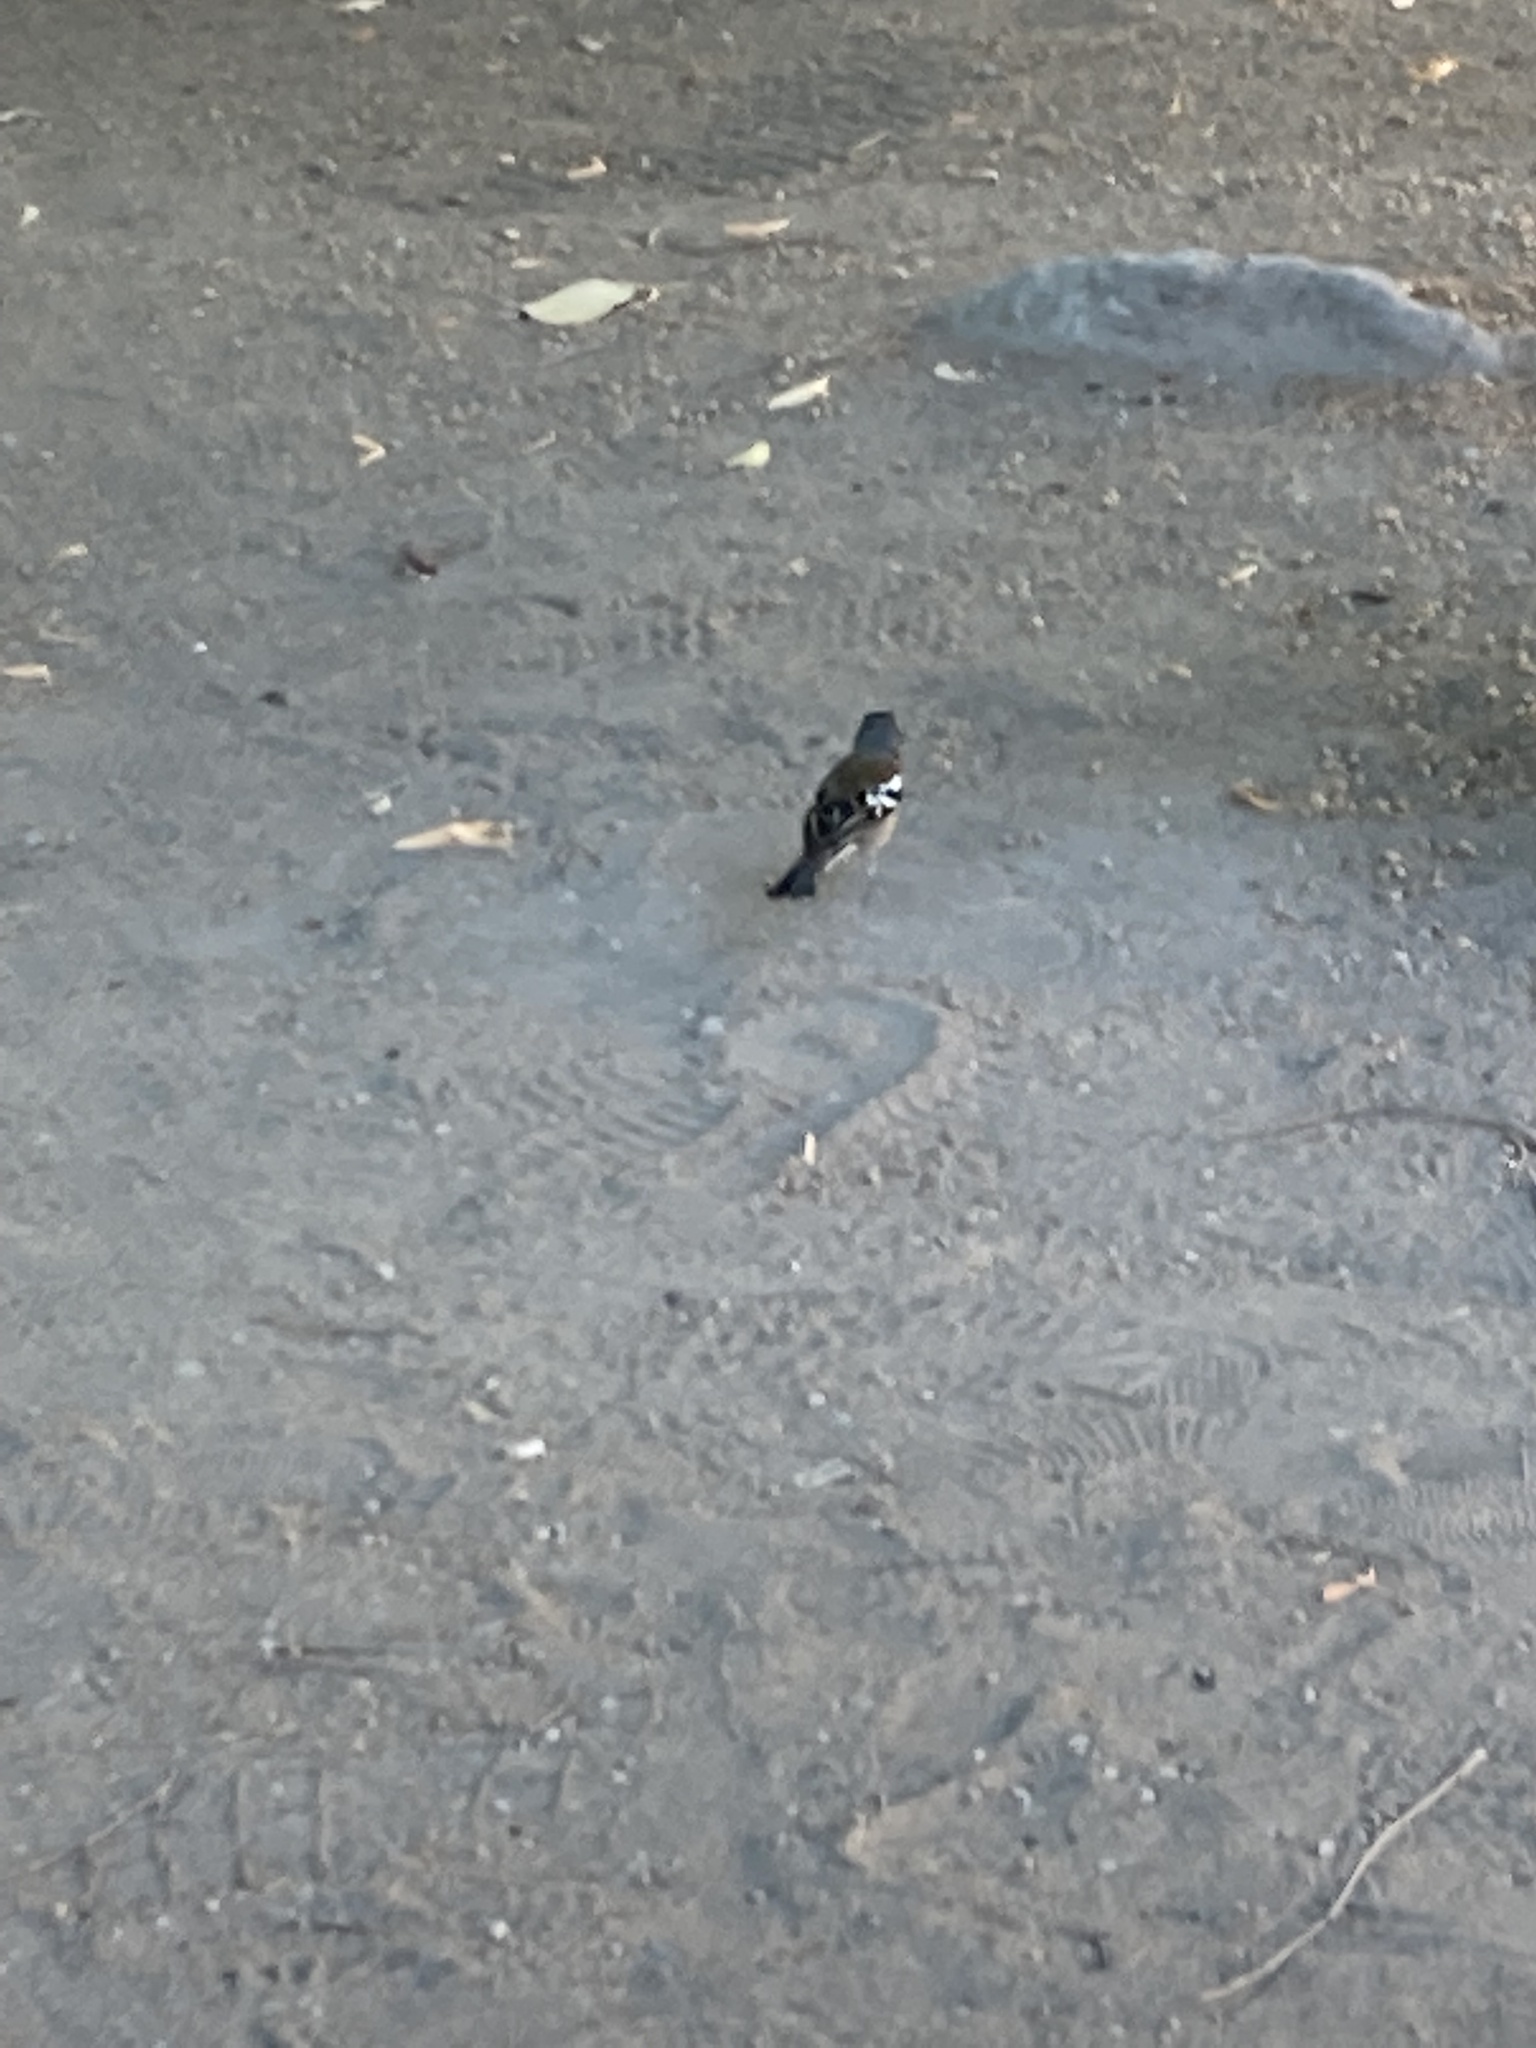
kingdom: Animalia
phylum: Chordata
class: Aves
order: Passeriformes
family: Fringillidae
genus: Fringilla
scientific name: Fringilla coelebs
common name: Common chaffinch
